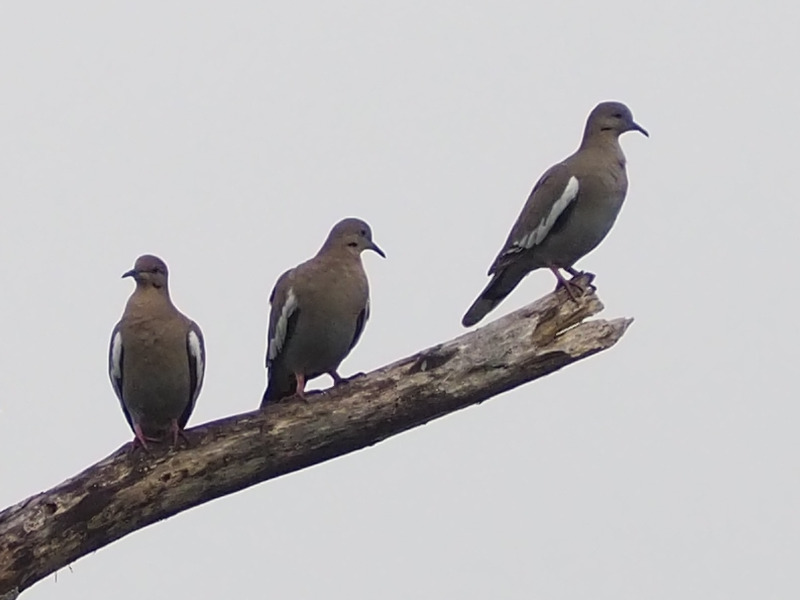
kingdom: Animalia
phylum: Chordata
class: Aves
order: Columbiformes
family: Columbidae
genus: Zenaida
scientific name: Zenaida asiatica
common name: White-winged dove
